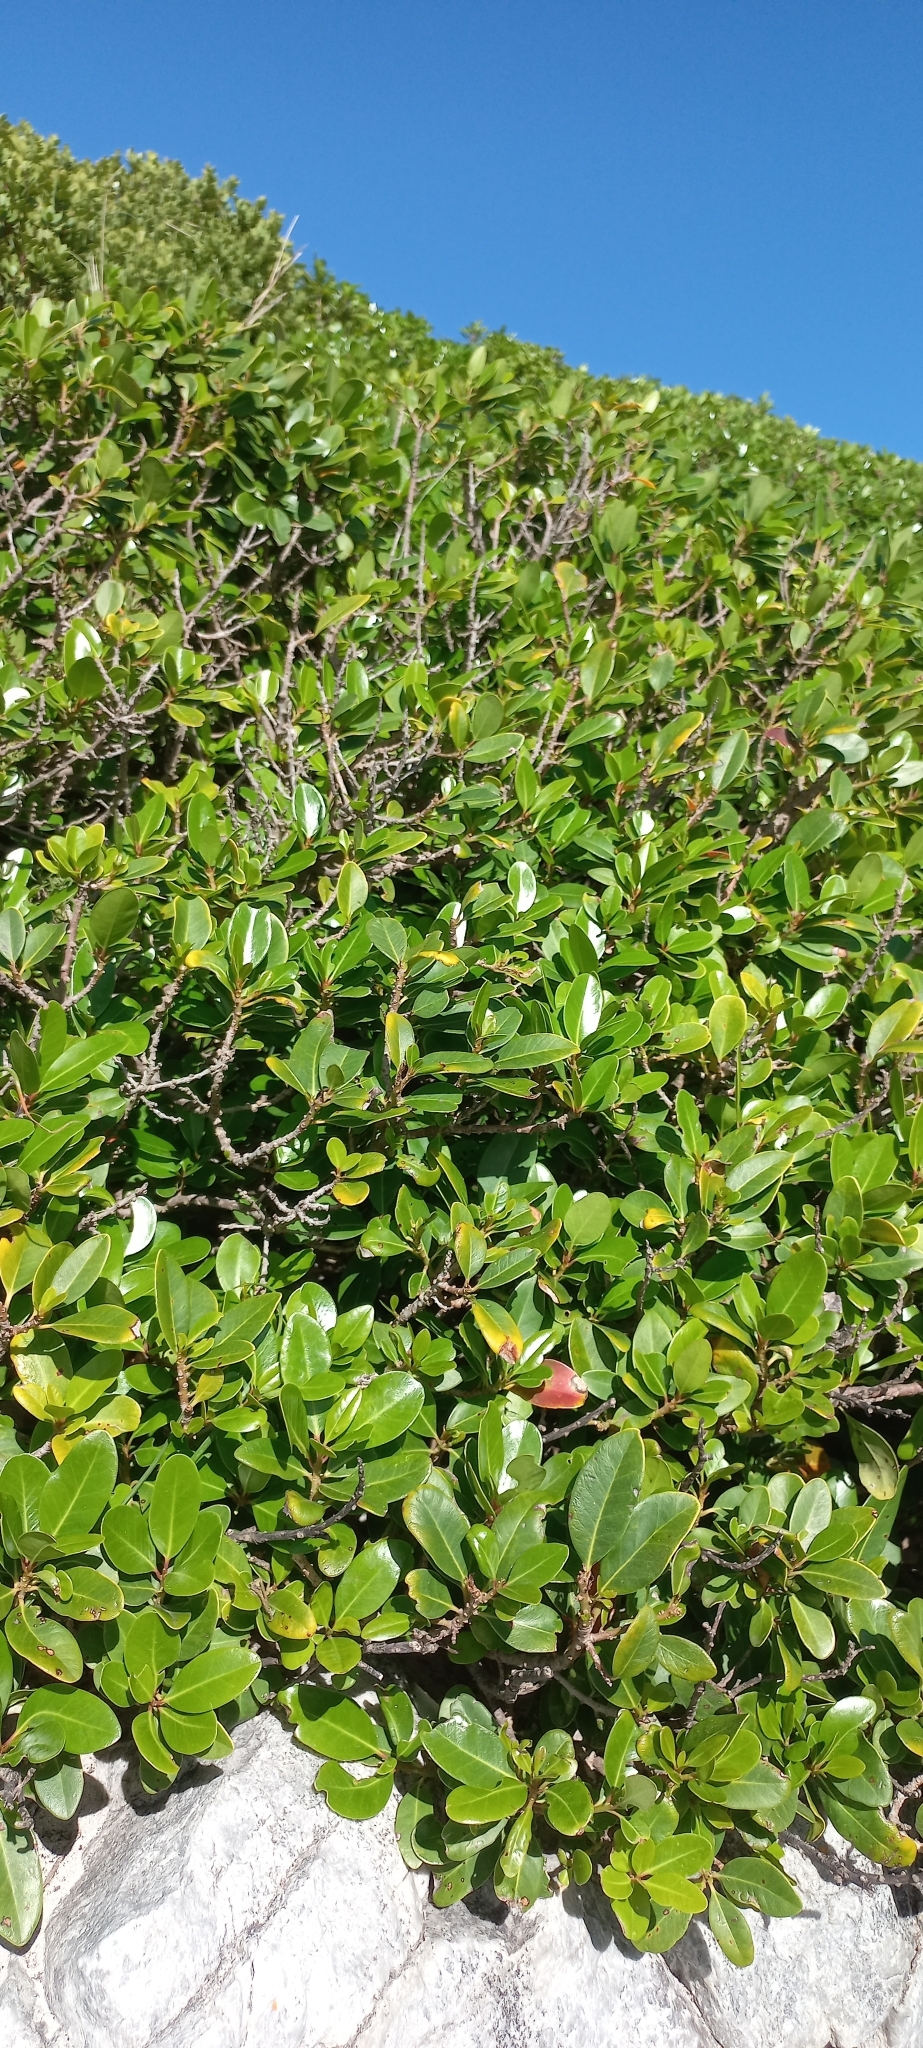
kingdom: Plantae
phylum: Tracheophyta
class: Magnoliopsida
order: Ericales
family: Sapotaceae
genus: Sideroxylon
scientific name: Sideroxylon inerme
